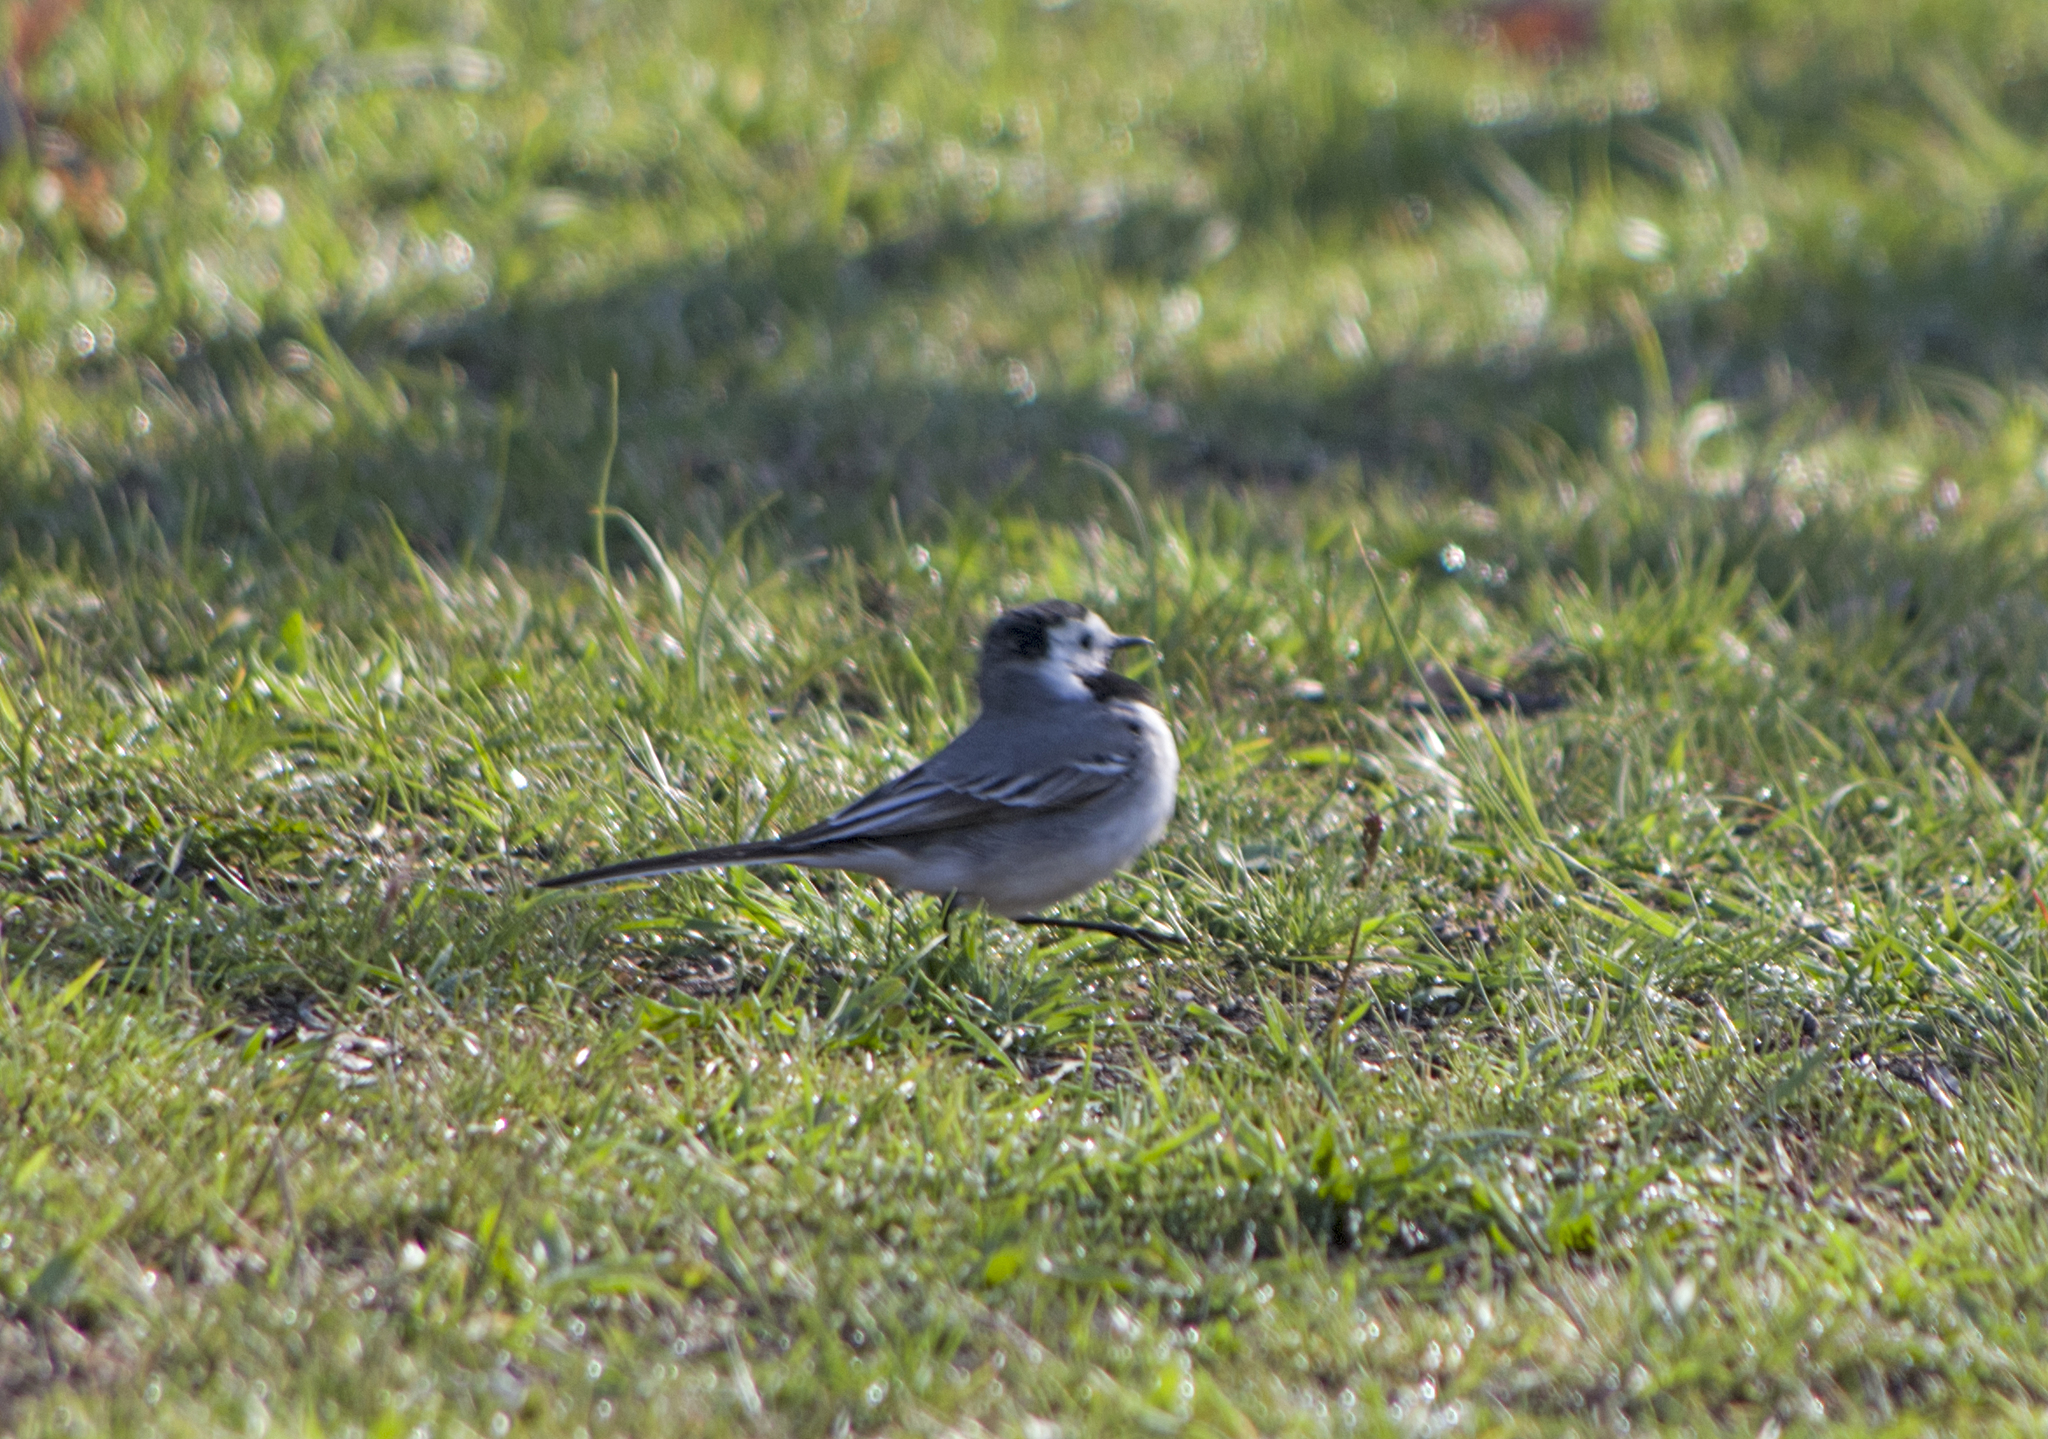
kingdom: Animalia
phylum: Chordata
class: Aves
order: Passeriformes
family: Motacillidae
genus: Motacilla
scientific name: Motacilla alba
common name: White wagtail
